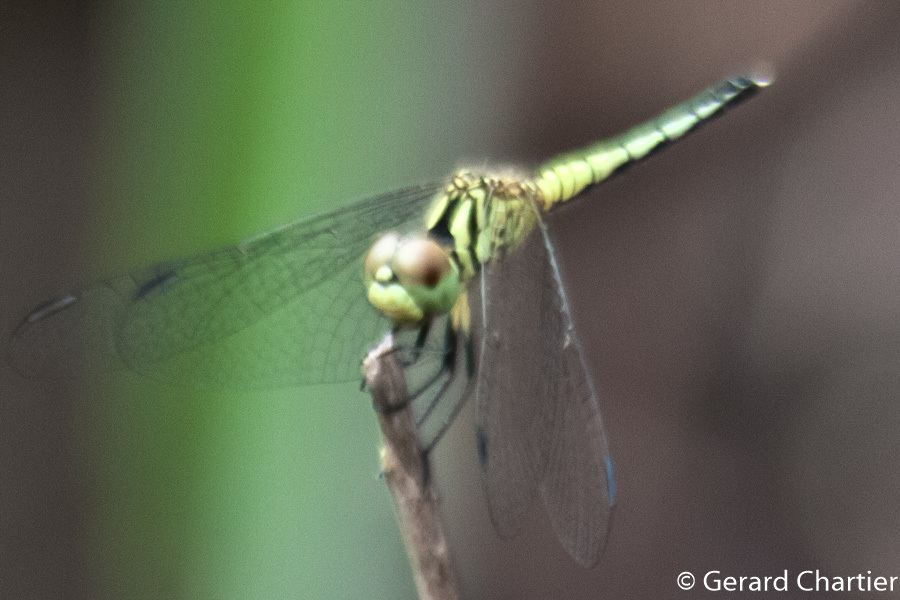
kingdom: Animalia
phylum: Arthropoda
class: Insecta
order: Odonata
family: Libellulidae
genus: Diplacodes
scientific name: Diplacodes nebulosa
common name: Black-tipped percher
